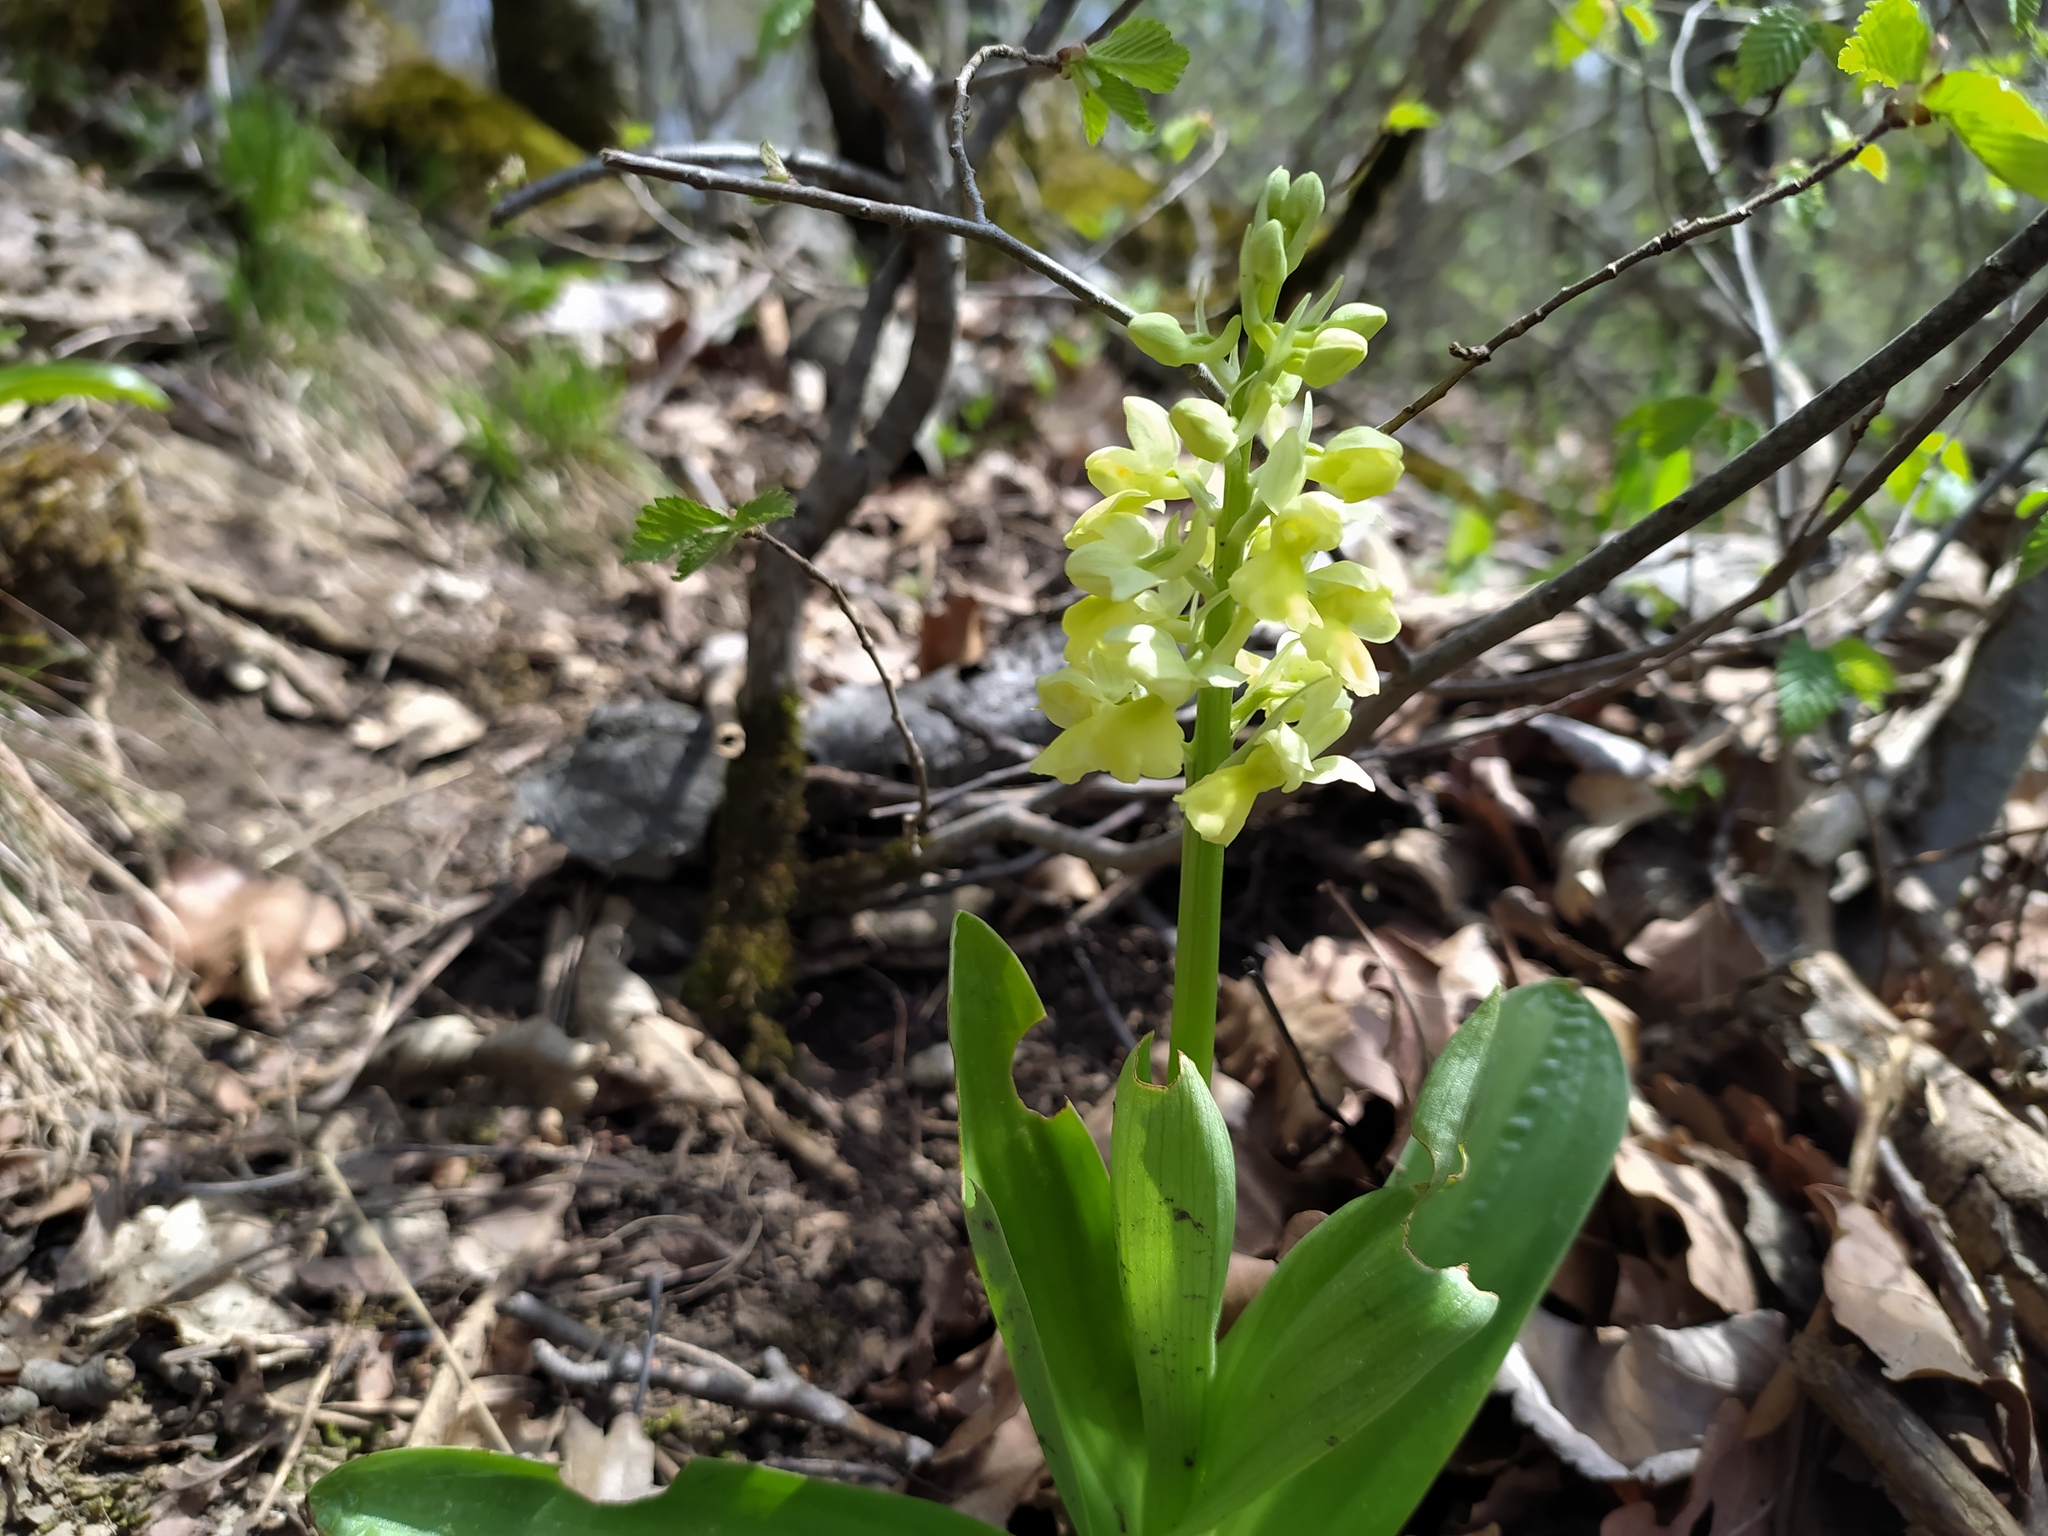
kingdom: Plantae
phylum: Tracheophyta
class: Liliopsida
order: Asparagales
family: Orchidaceae
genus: Orchis
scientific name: Orchis pallens
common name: Pale-flowered orchid
